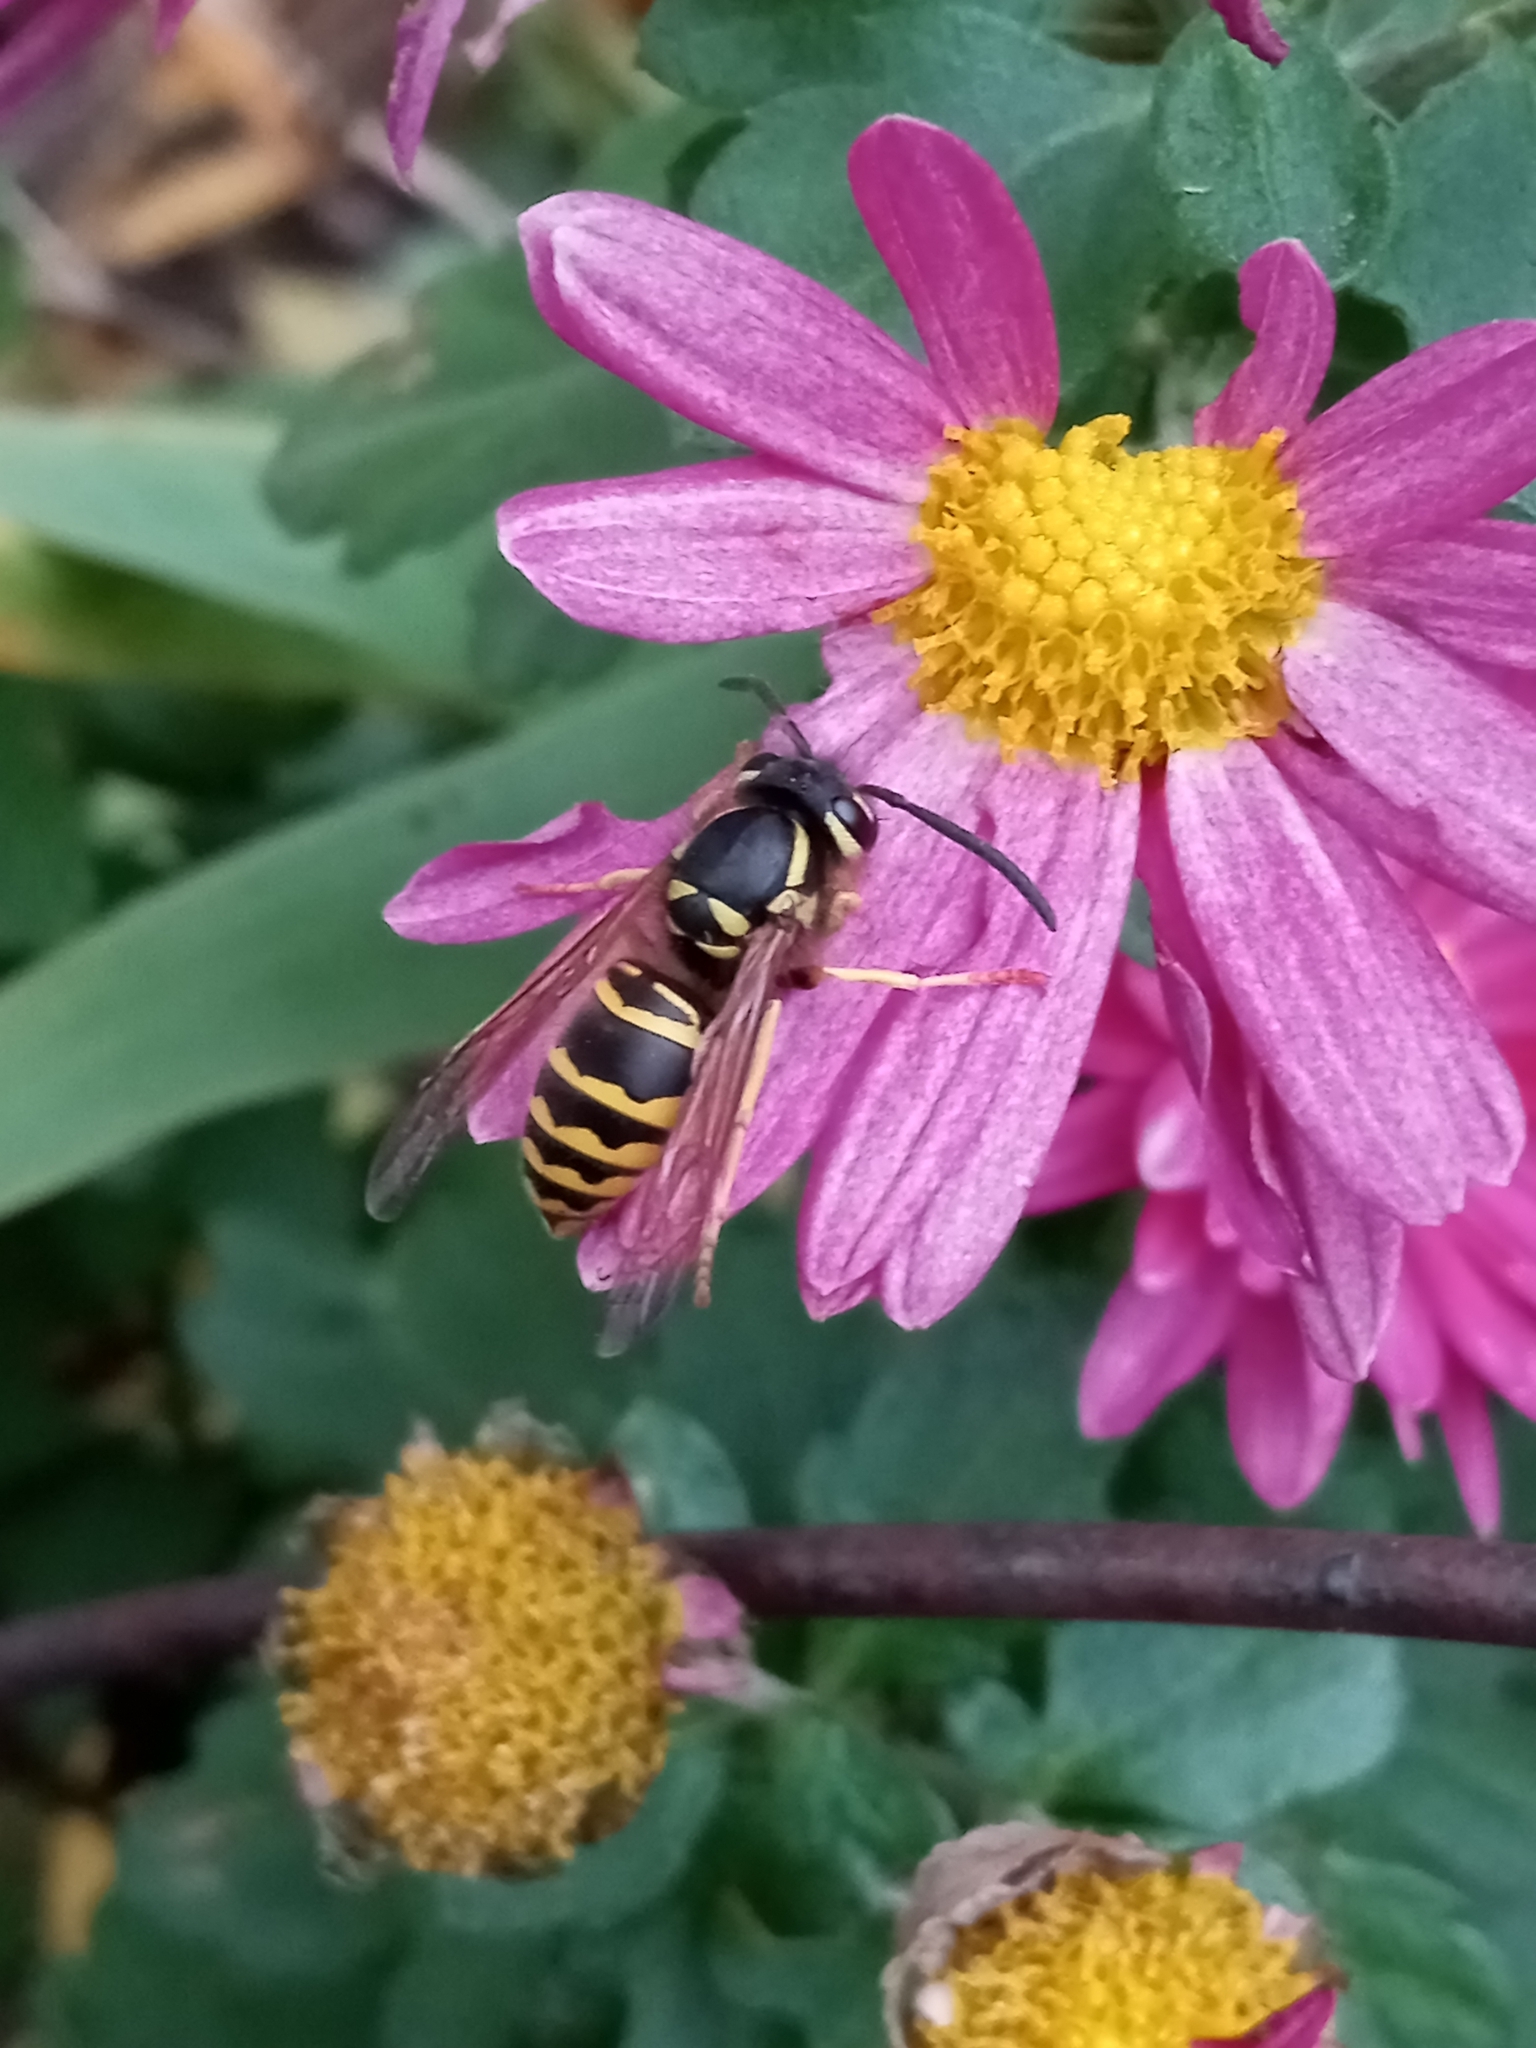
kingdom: Animalia
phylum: Arthropoda
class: Insecta
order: Hymenoptera
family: Vespidae
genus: Vespula
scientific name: Vespula maculifrons
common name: Eastern yellowjacket
